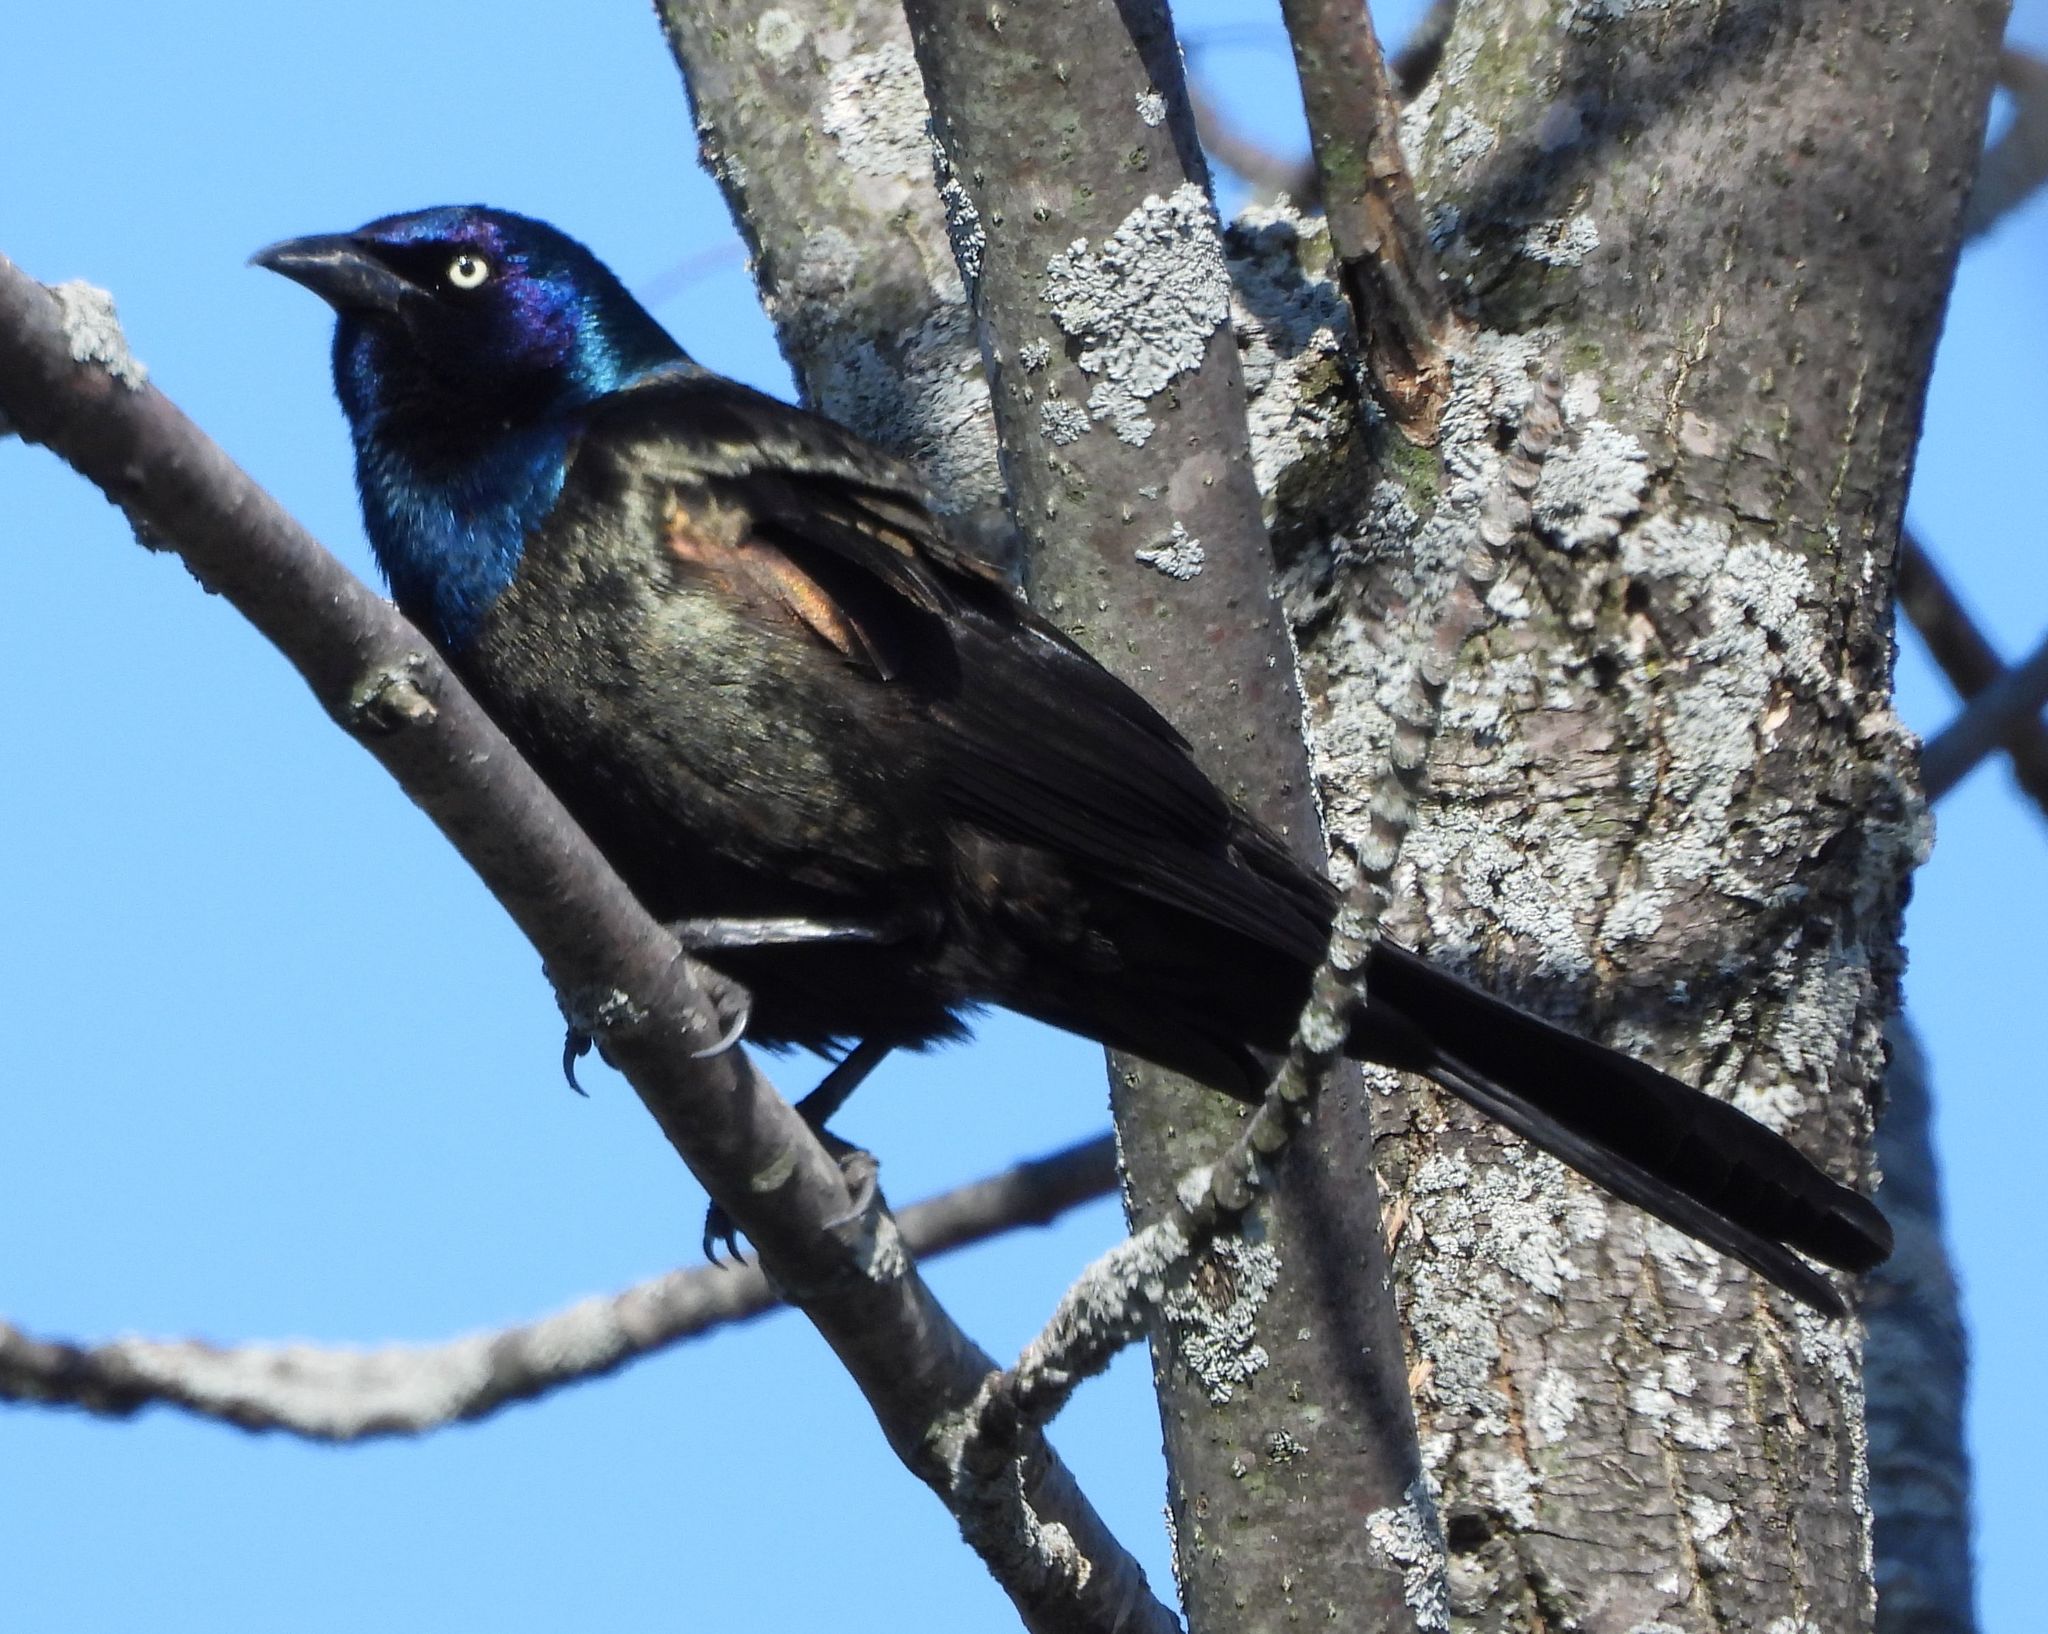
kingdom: Animalia
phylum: Chordata
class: Aves
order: Passeriformes
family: Icteridae
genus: Quiscalus
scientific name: Quiscalus quiscula
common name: Common grackle
